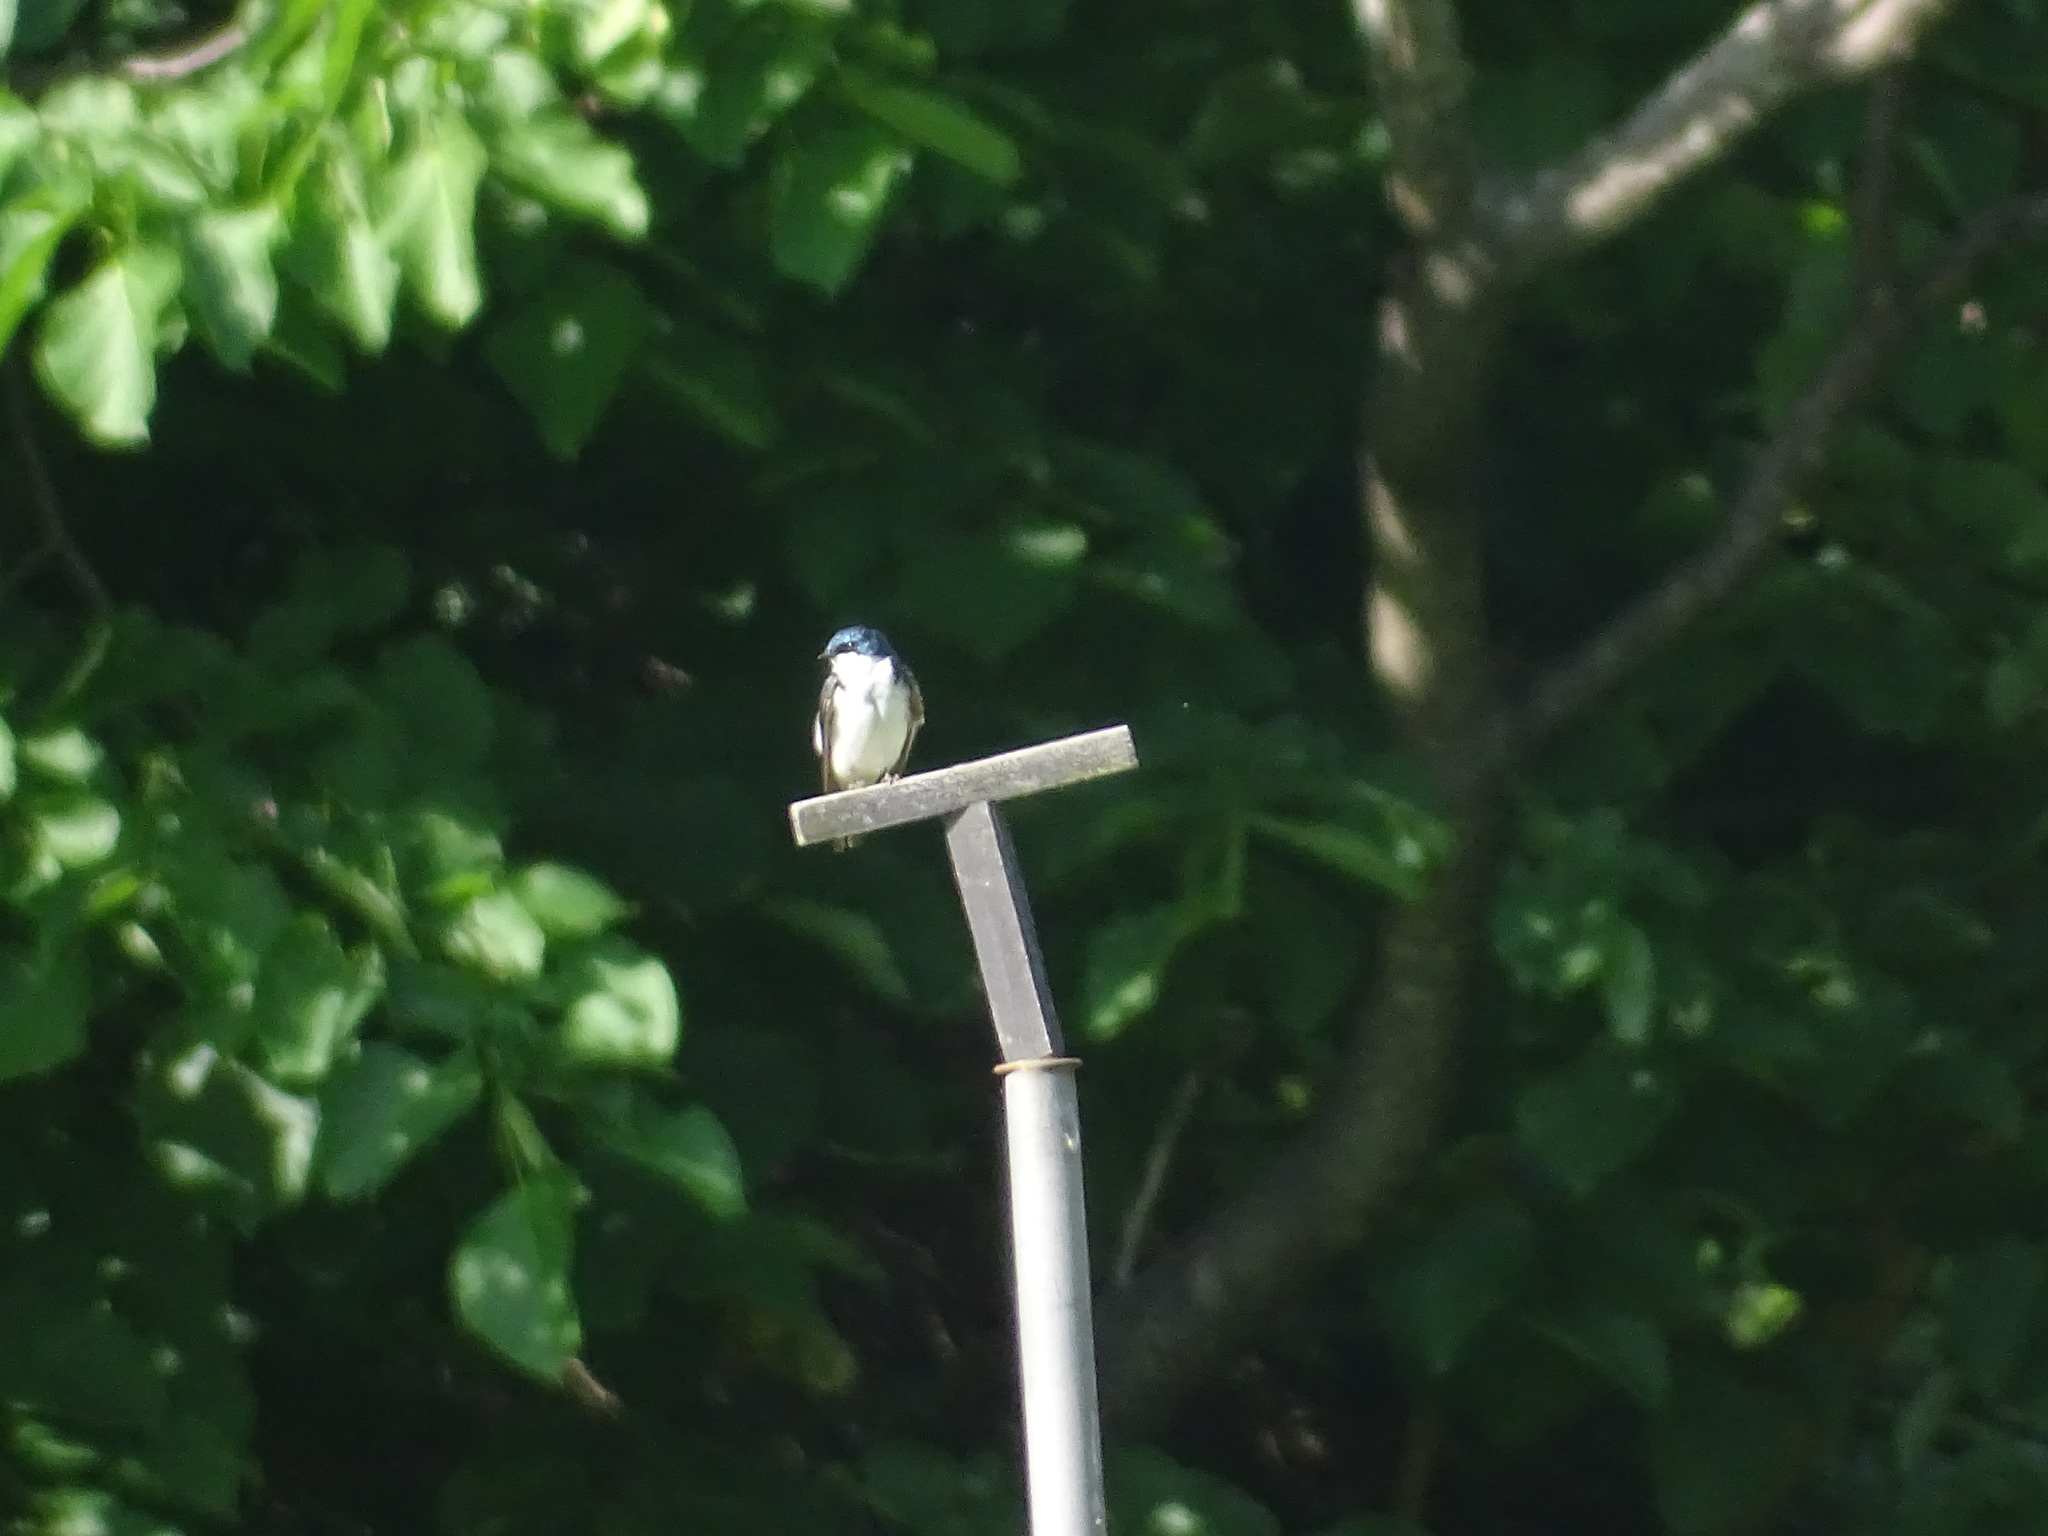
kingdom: Animalia
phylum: Chordata
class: Aves
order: Passeriformes
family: Hirundinidae
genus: Tachycineta
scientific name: Tachycineta bicolor
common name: Tree swallow
